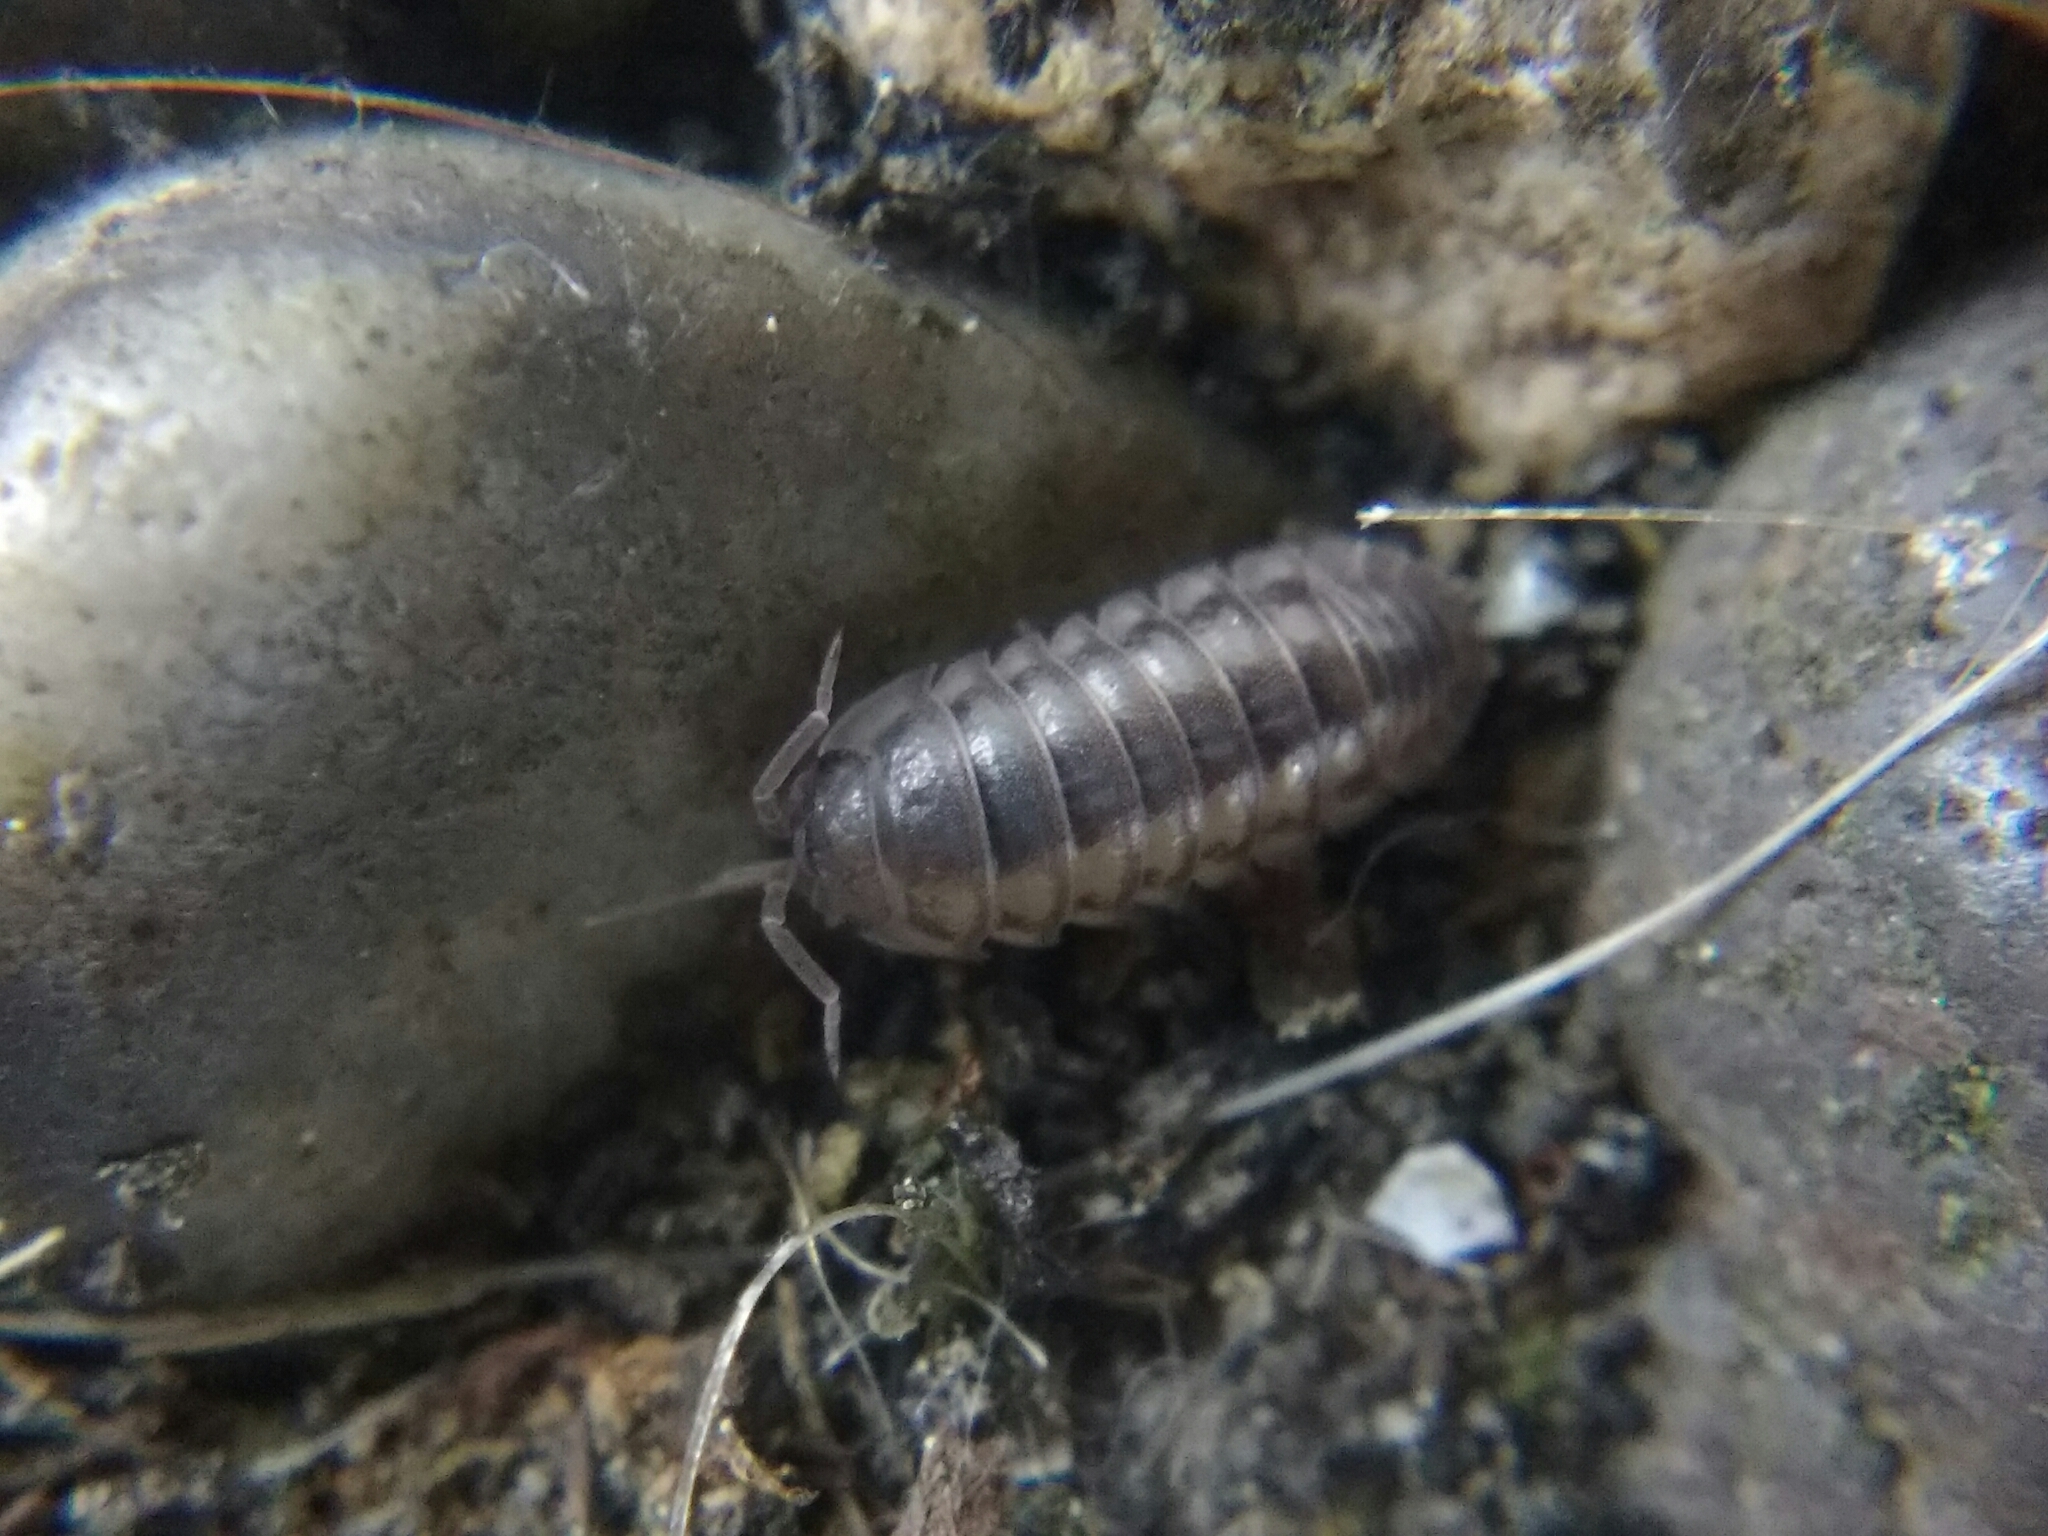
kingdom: Animalia
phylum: Arthropoda
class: Malacostraca
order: Isopoda
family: Armadillidiidae
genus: Armadillidium
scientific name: Armadillidium nasatum
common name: Isopod
